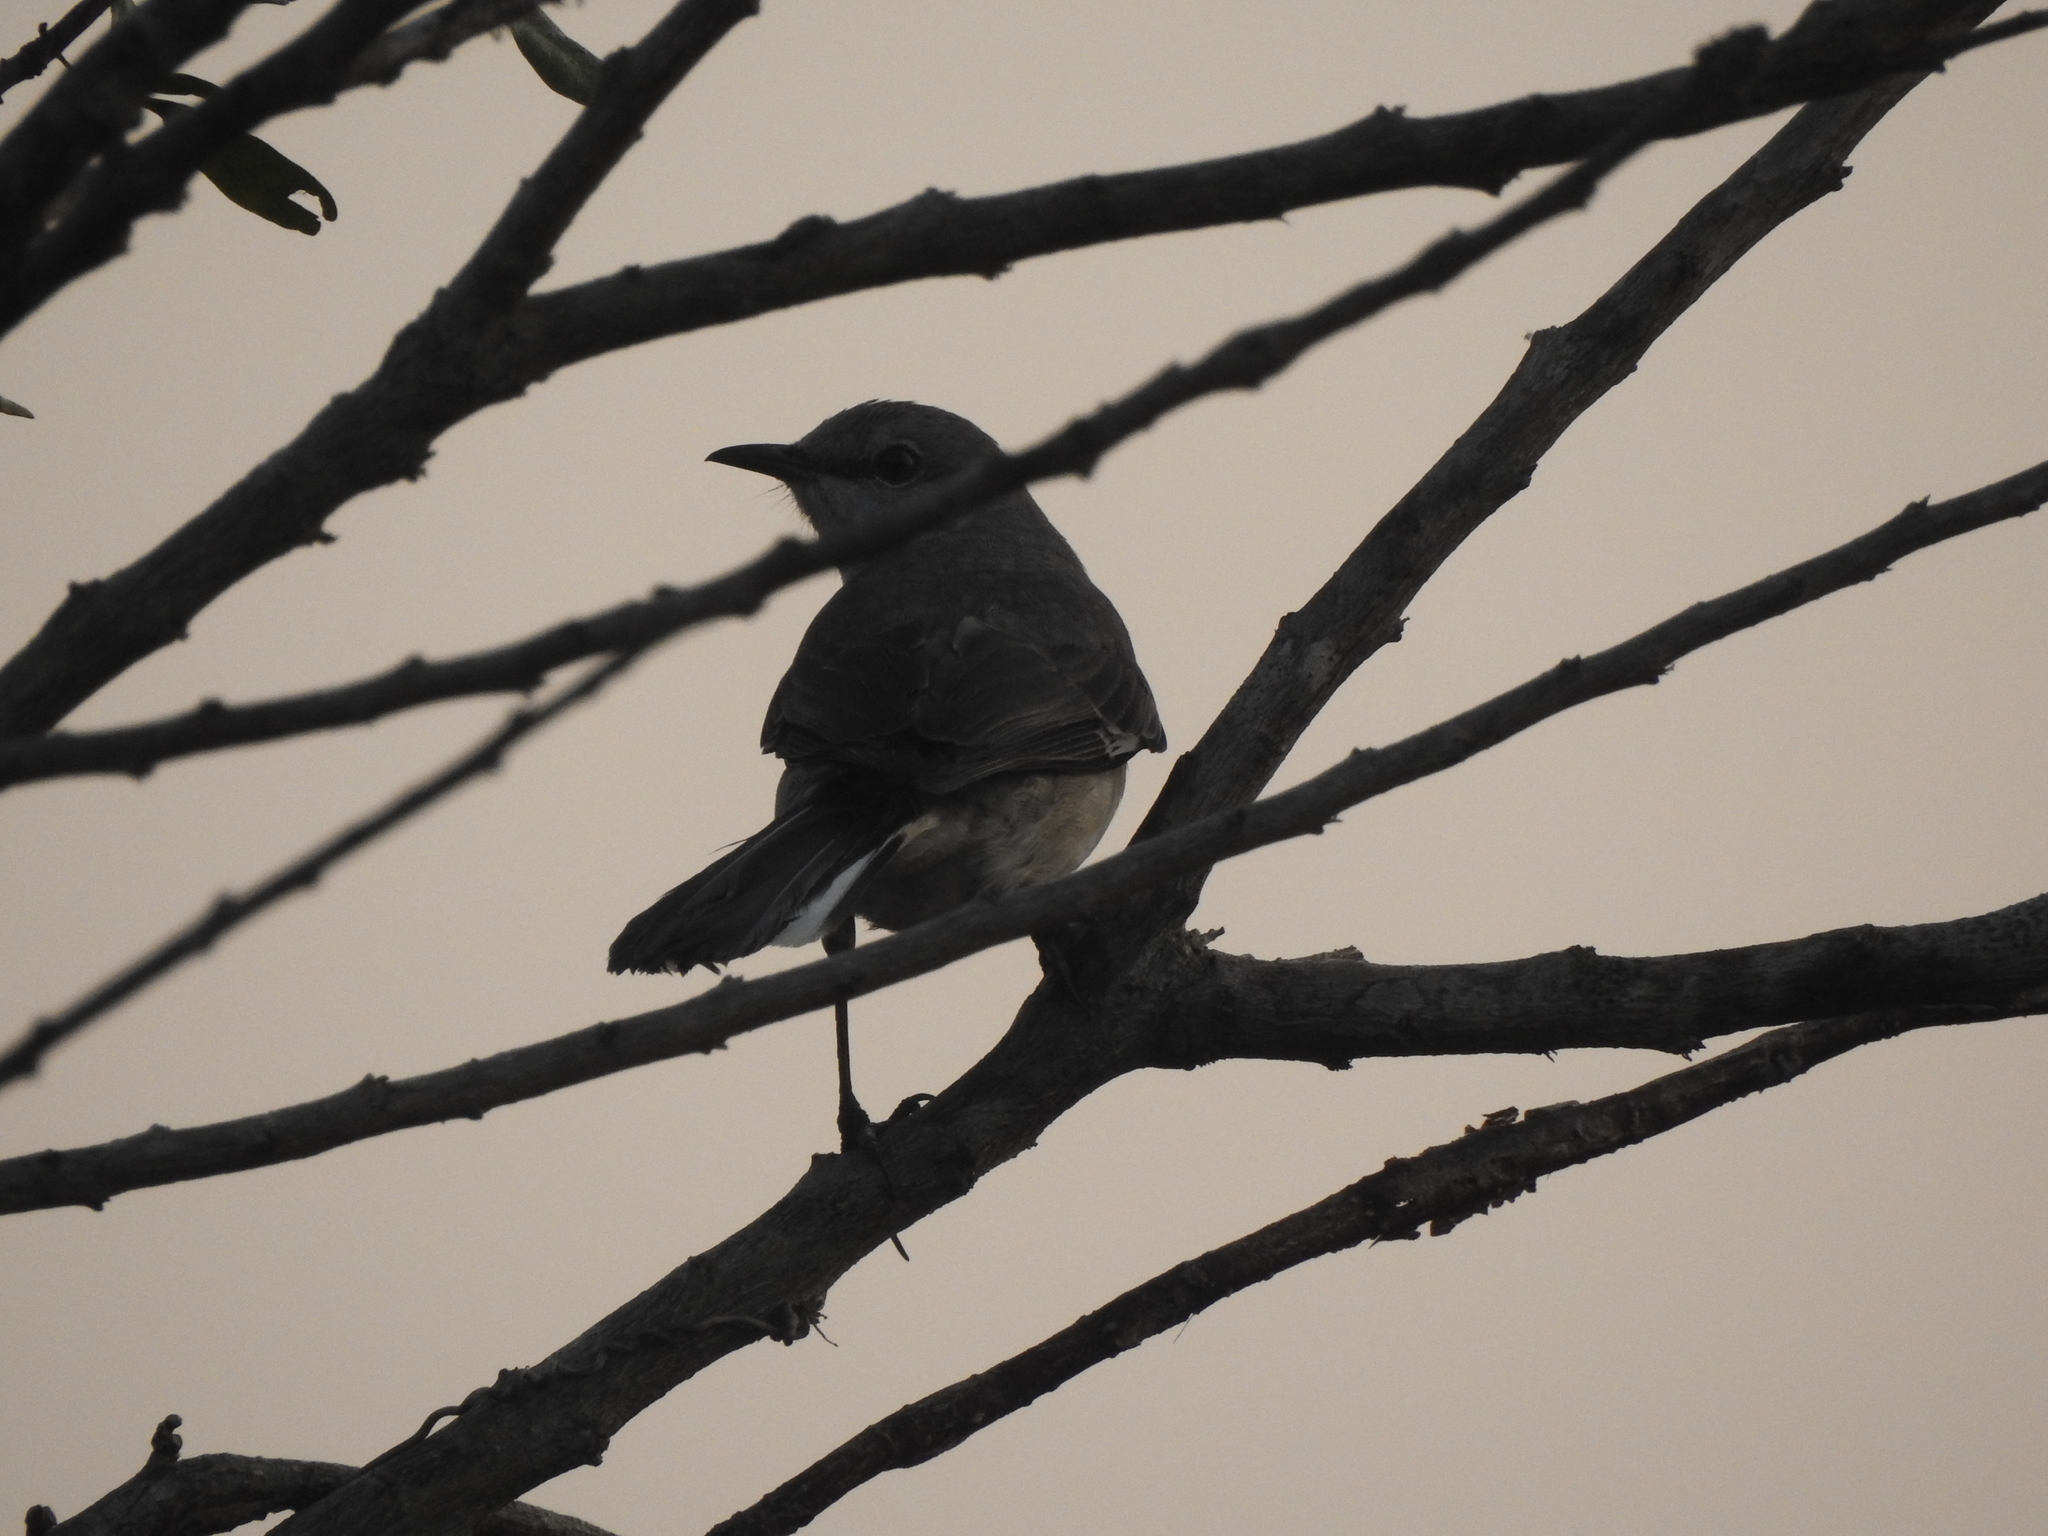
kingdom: Animalia
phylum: Chordata
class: Aves
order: Passeriformes
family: Mimidae
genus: Mimus
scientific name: Mimus polyglottos
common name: Northern mockingbird
